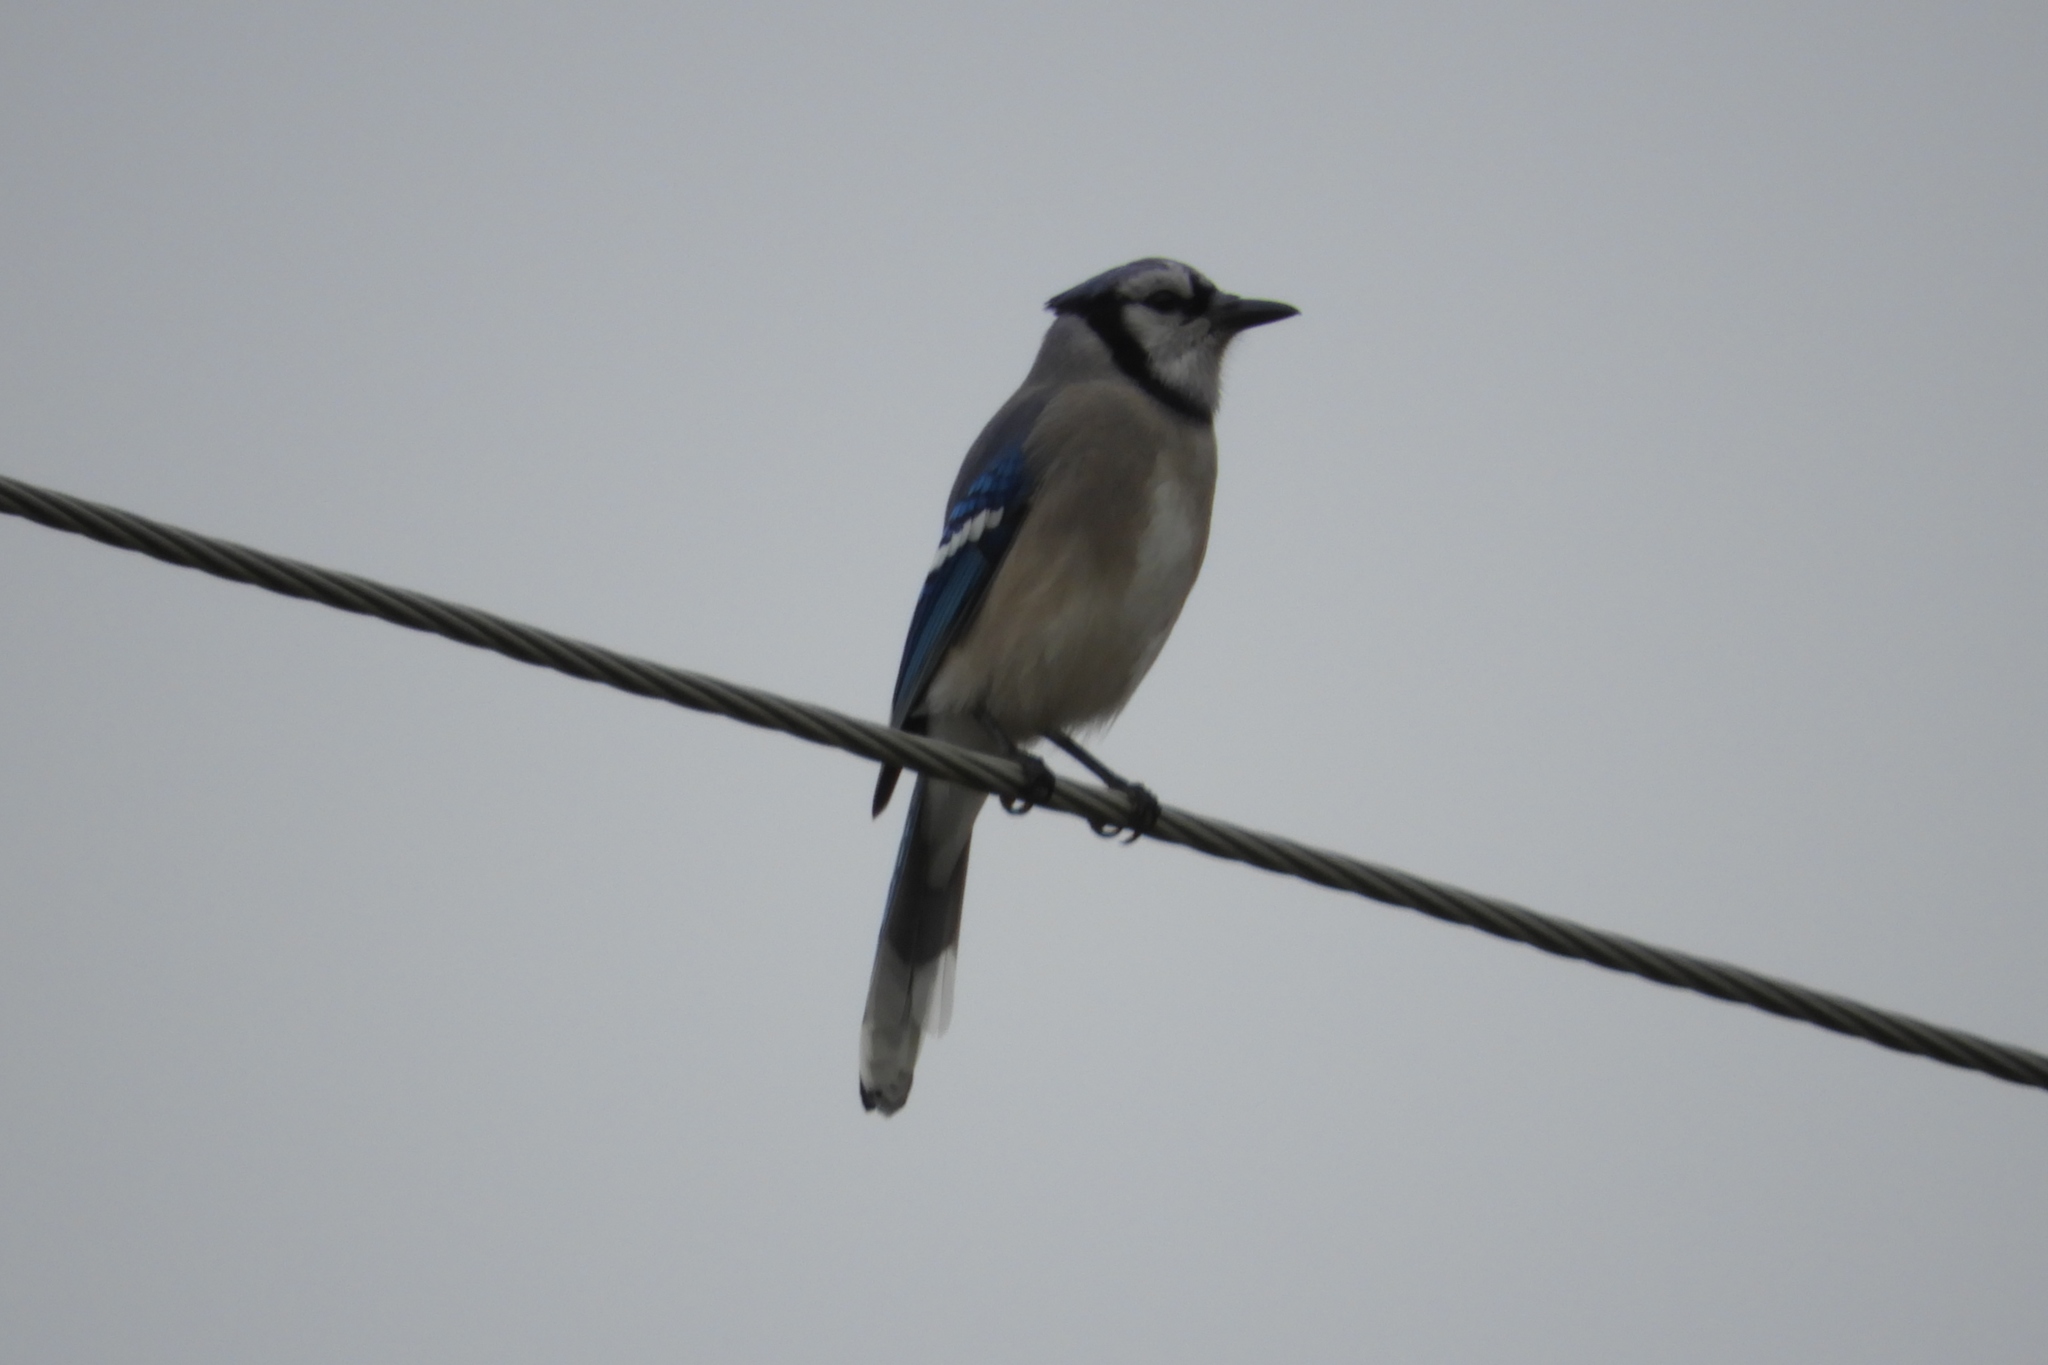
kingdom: Animalia
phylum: Chordata
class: Aves
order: Passeriformes
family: Corvidae
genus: Cyanocitta
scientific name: Cyanocitta cristata
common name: Blue jay
